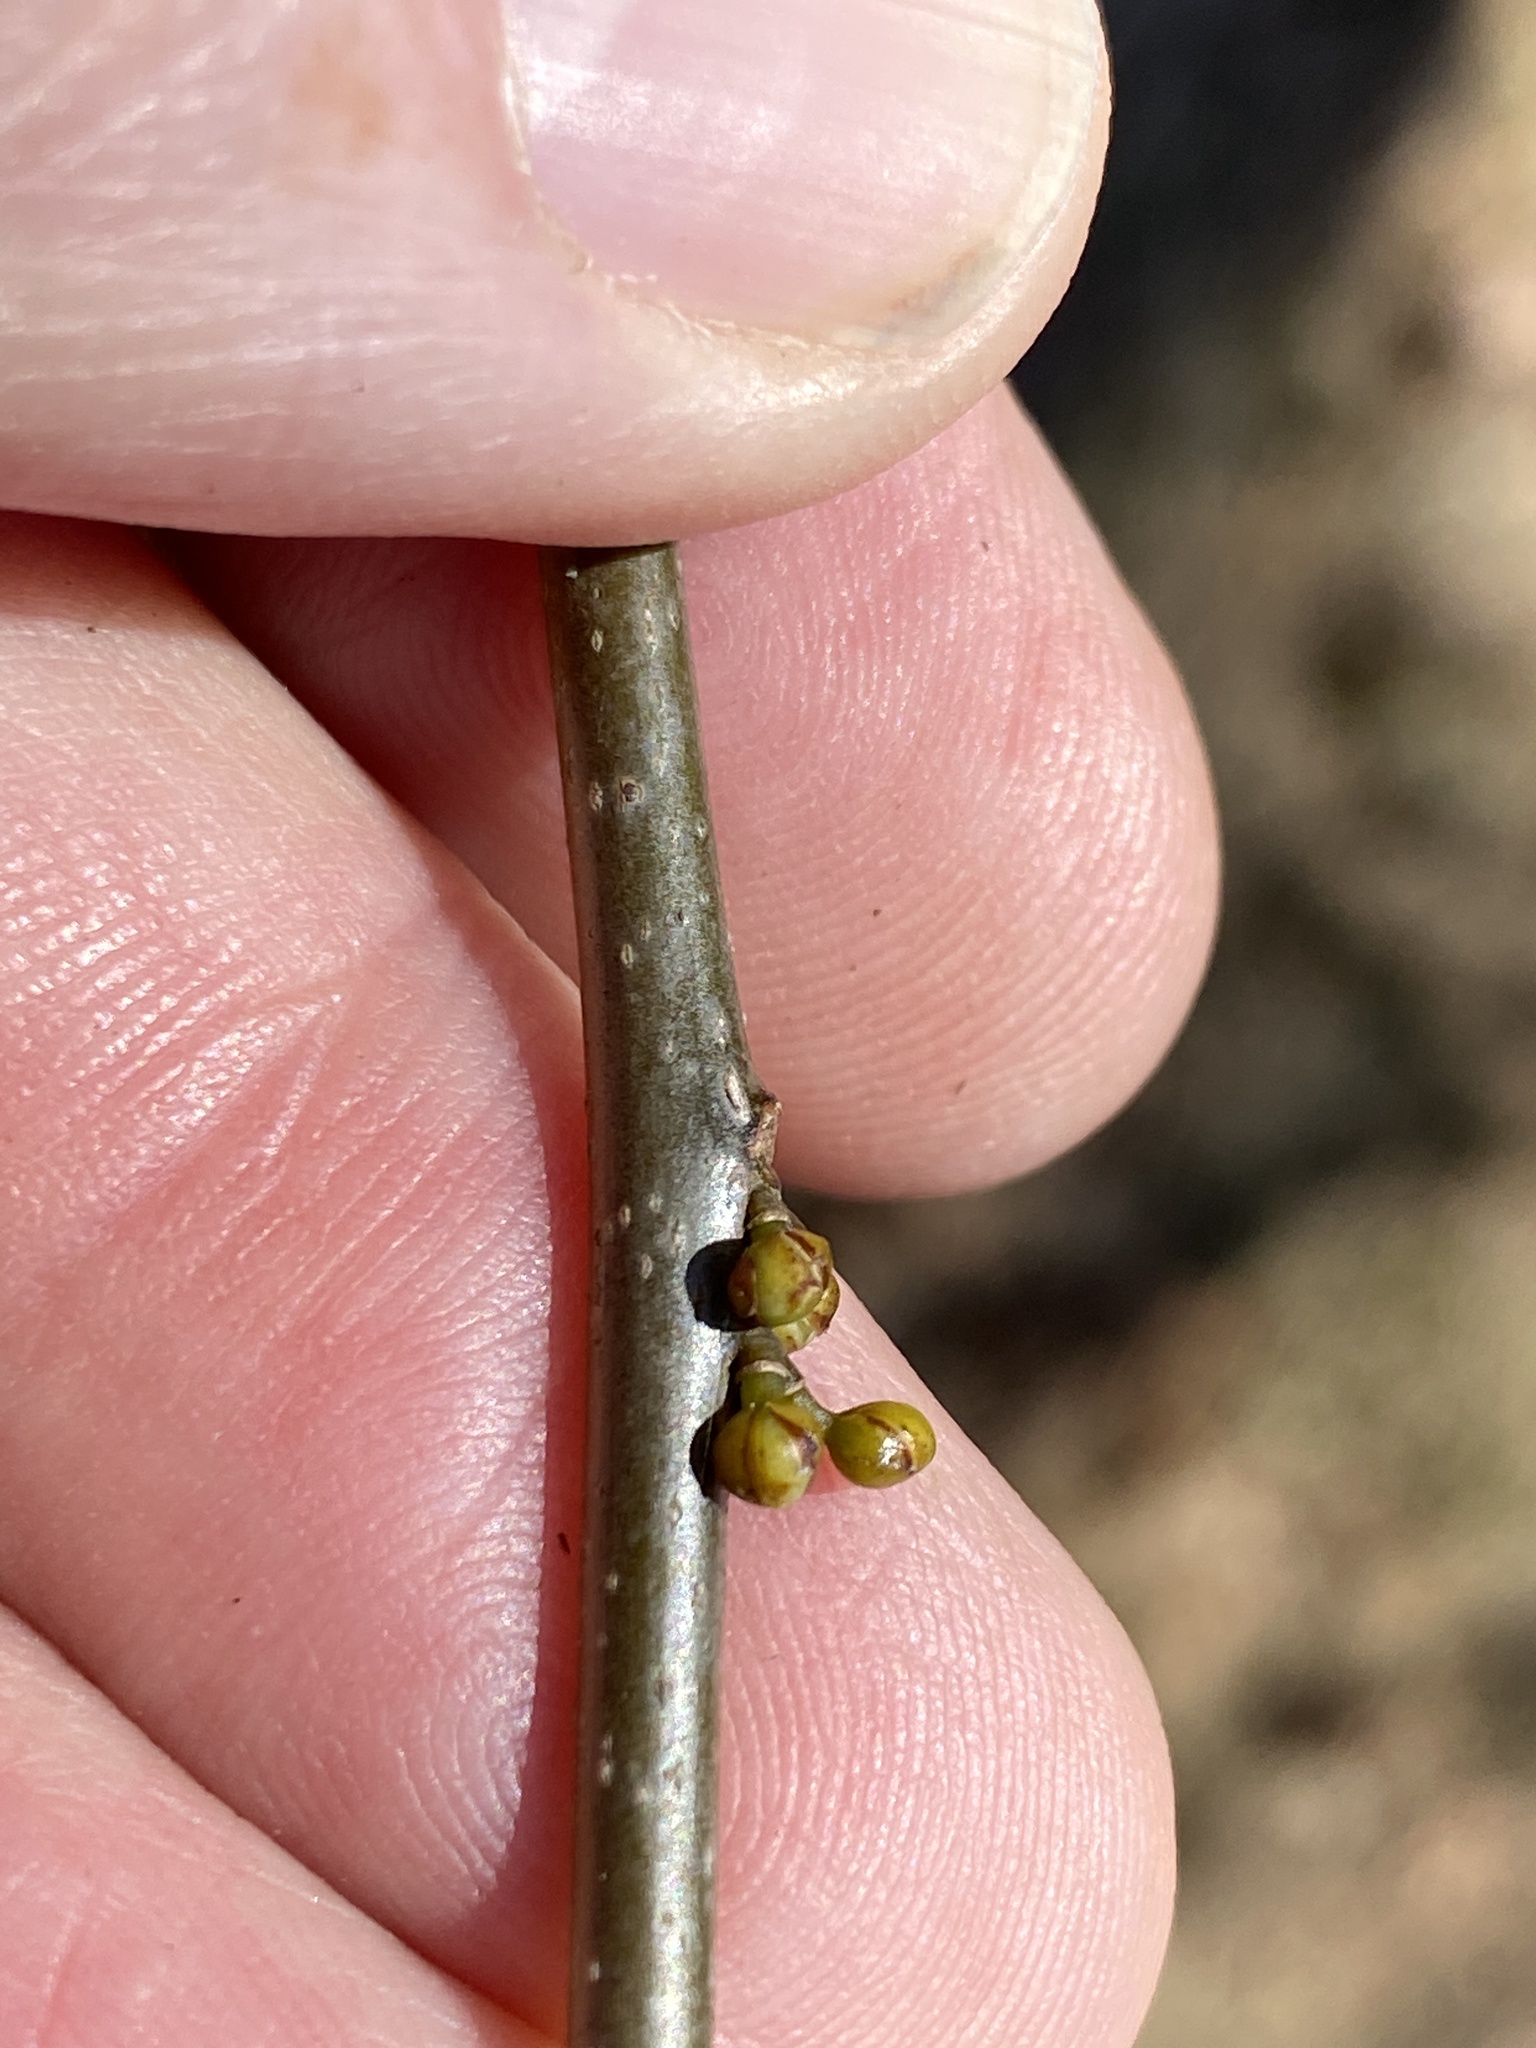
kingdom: Plantae
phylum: Tracheophyta
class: Magnoliopsida
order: Laurales
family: Lauraceae
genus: Lindera
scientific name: Lindera benzoin
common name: Spicebush
